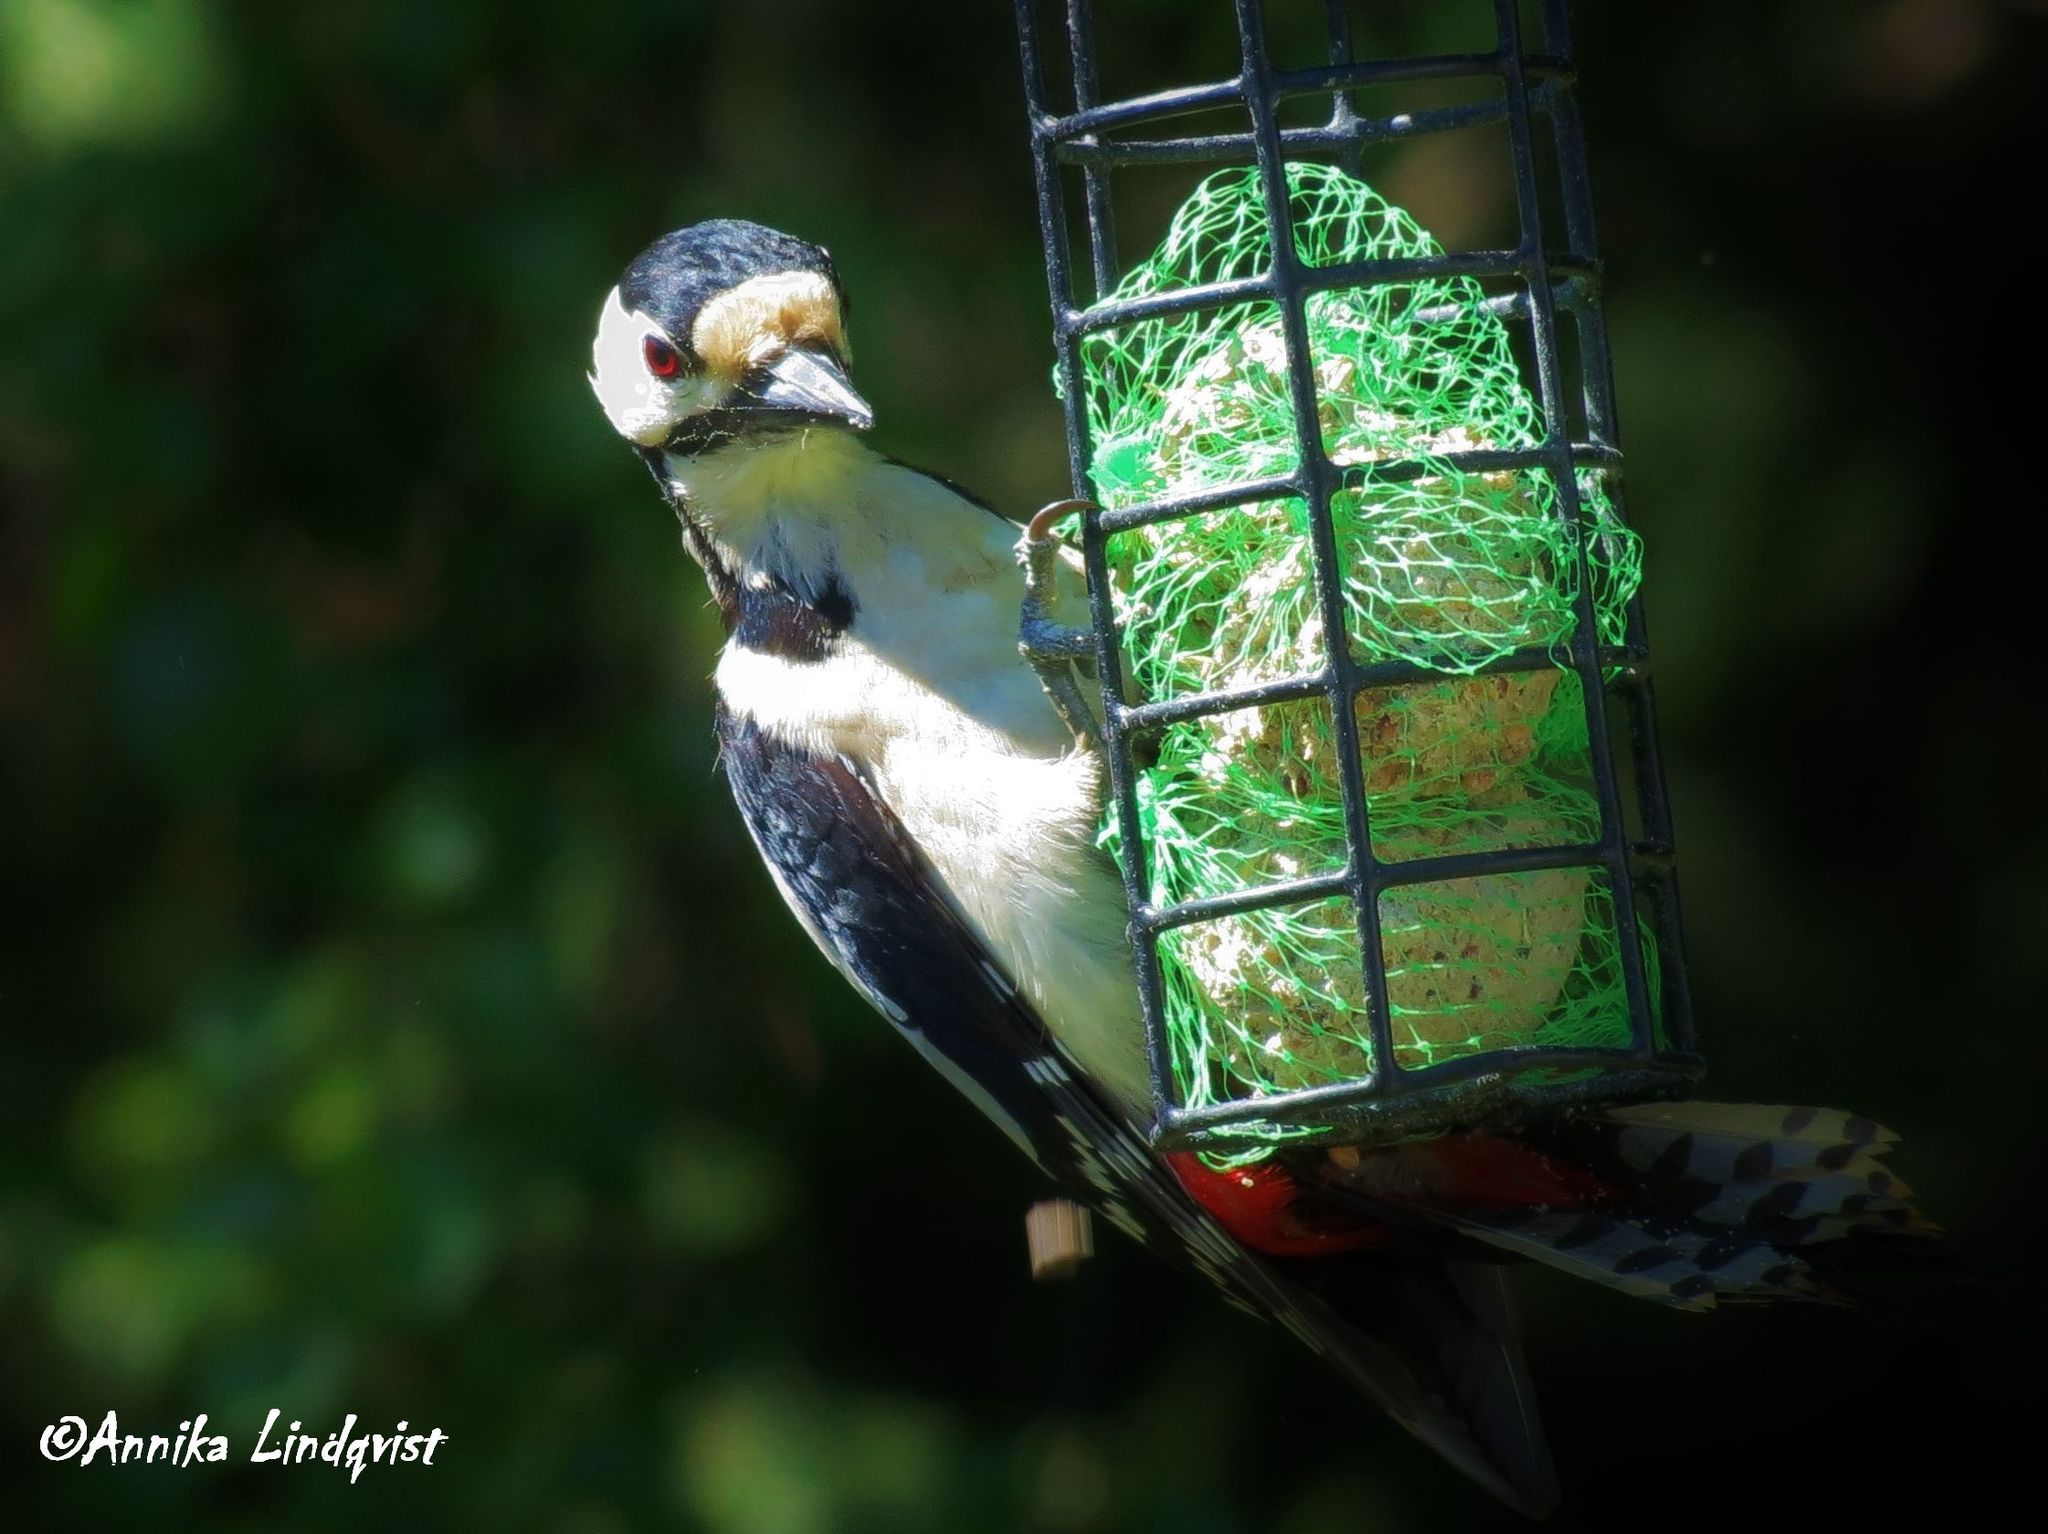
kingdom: Animalia
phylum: Chordata
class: Aves
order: Piciformes
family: Picidae
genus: Dendrocopos
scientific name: Dendrocopos major
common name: Great spotted woodpecker
